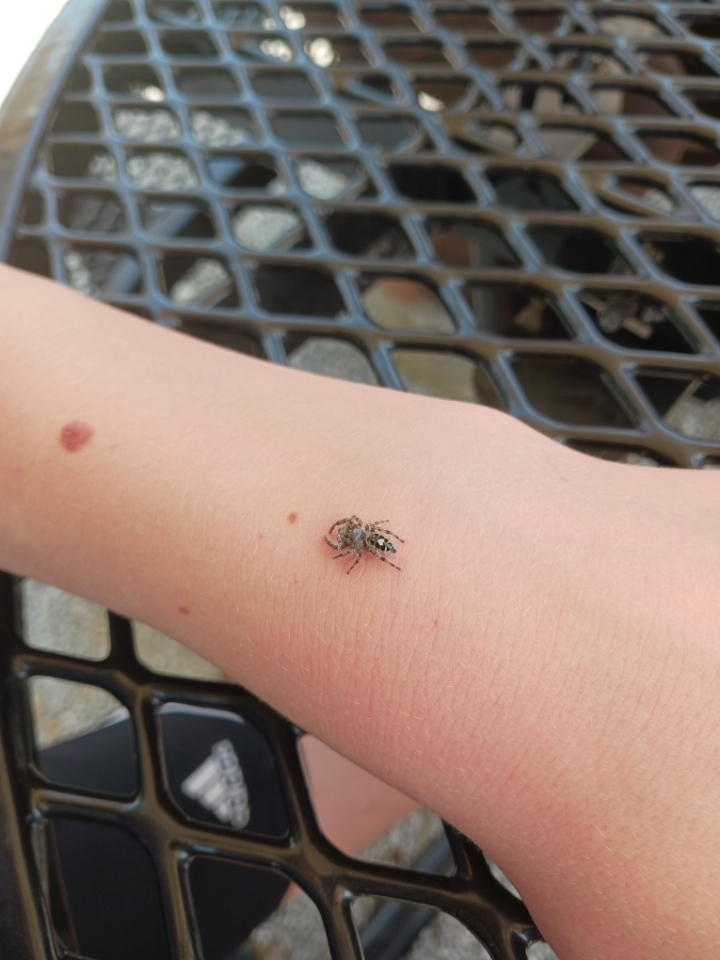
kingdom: Animalia
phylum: Arthropoda
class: Arachnida
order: Araneae
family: Salticidae
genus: Phidippus
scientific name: Phidippus putnami
